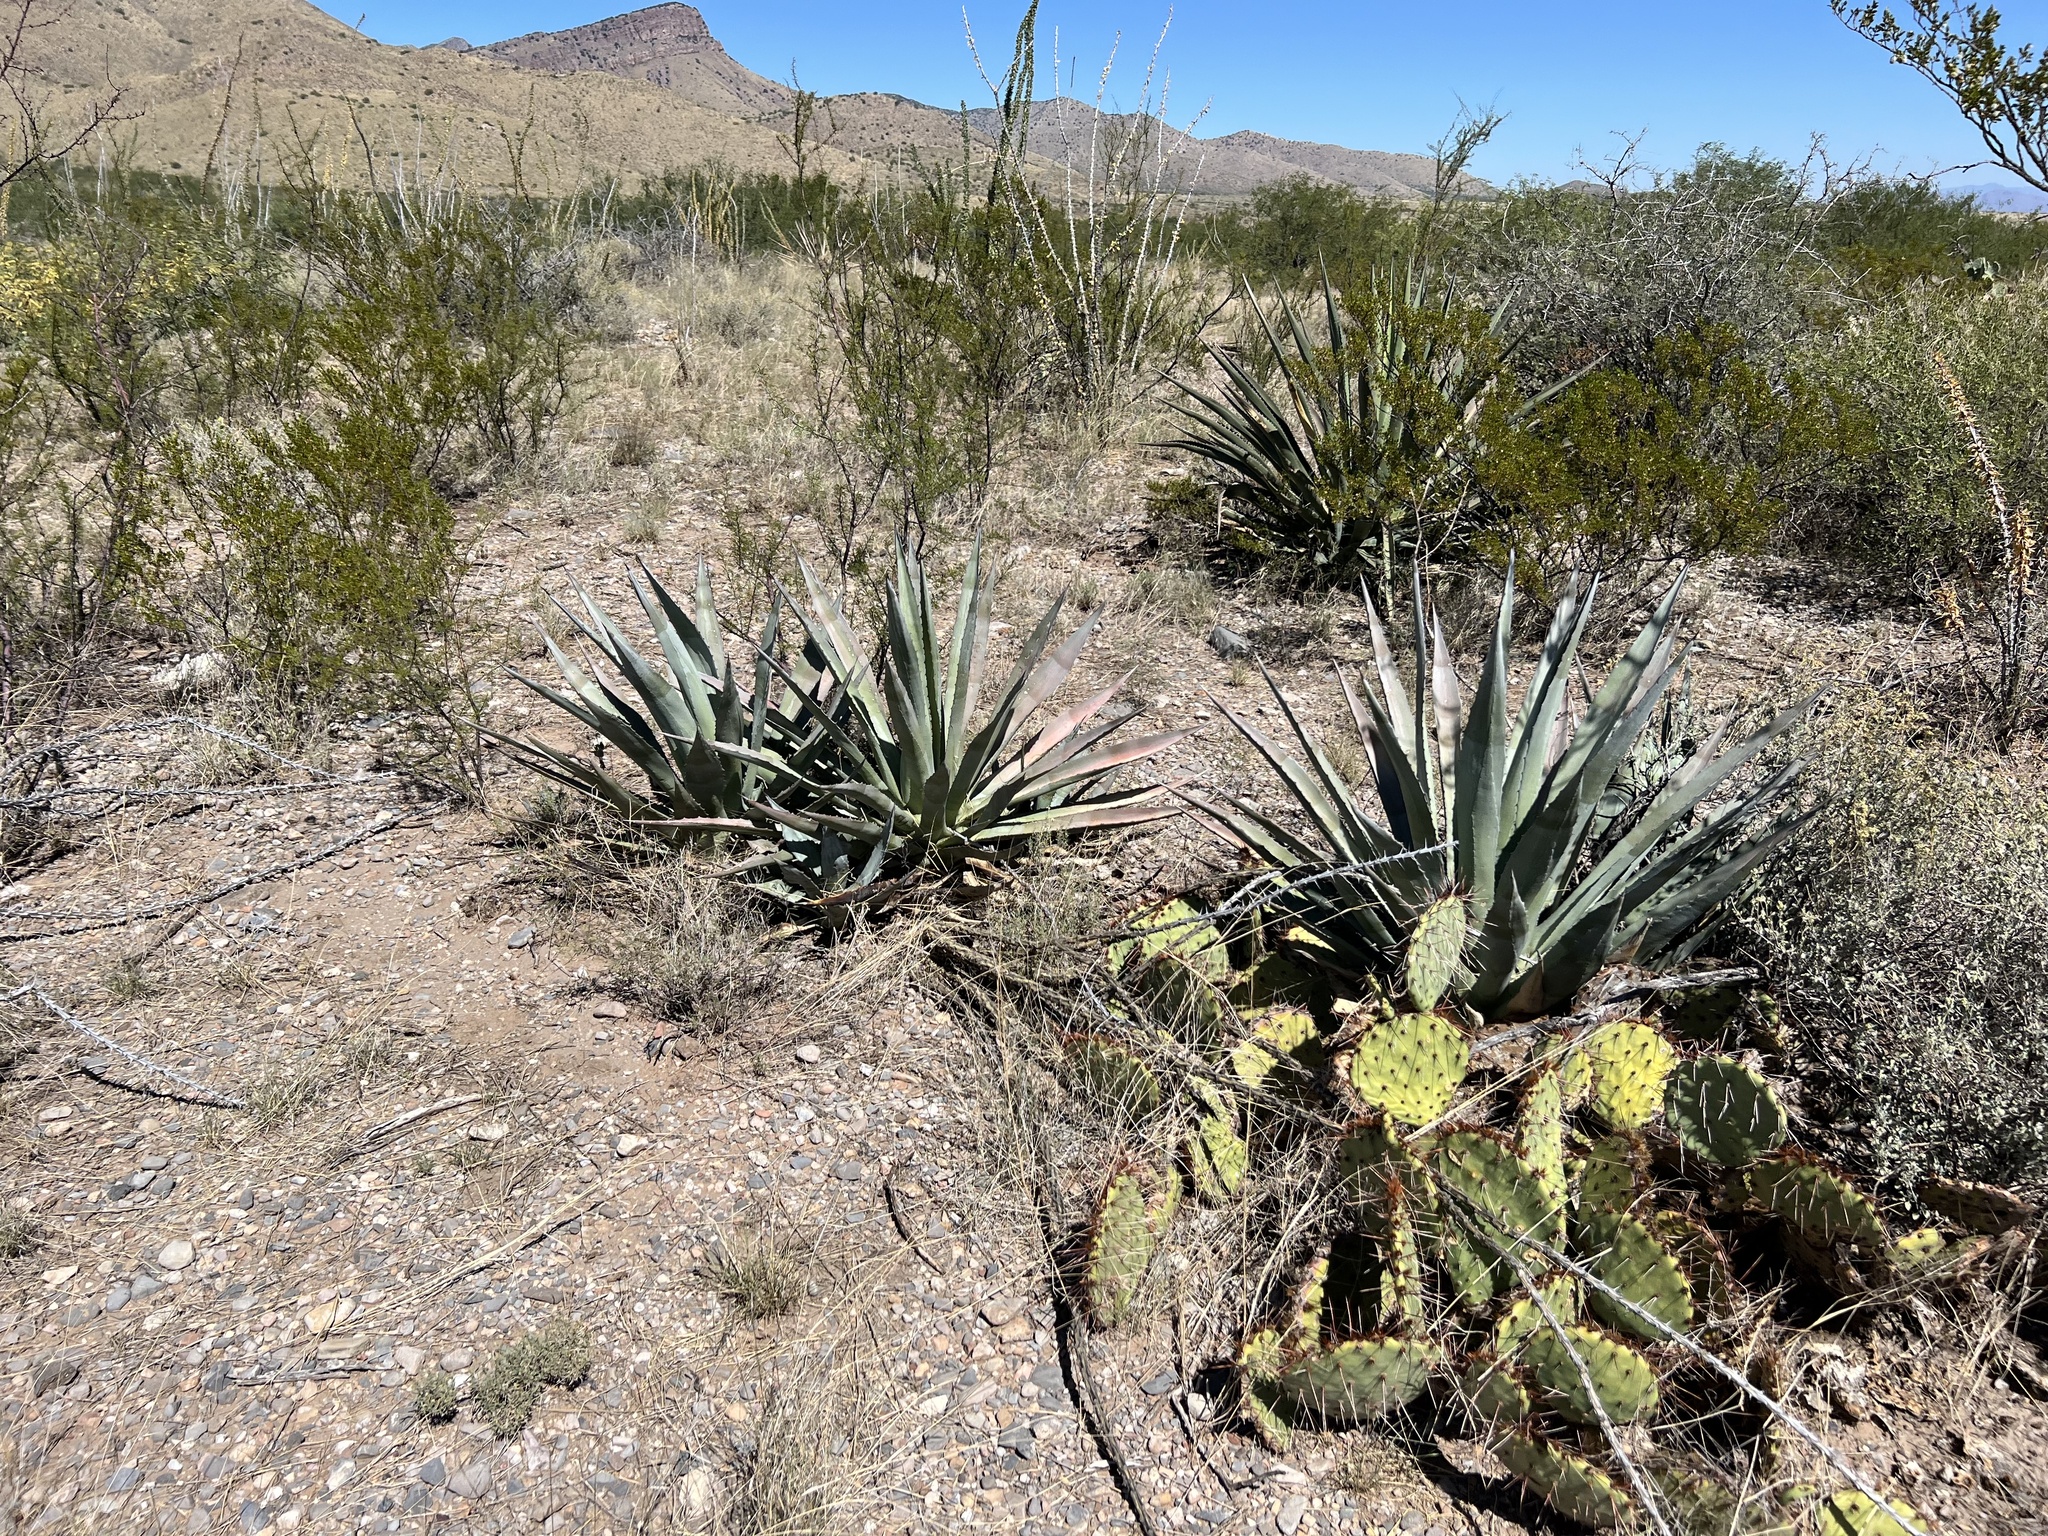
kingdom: Plantae
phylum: Tracheophyta
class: Liliopsida
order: Asparagales
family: Asparagaceae
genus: Agave
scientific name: Agave palmeri
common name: Palmer agave
